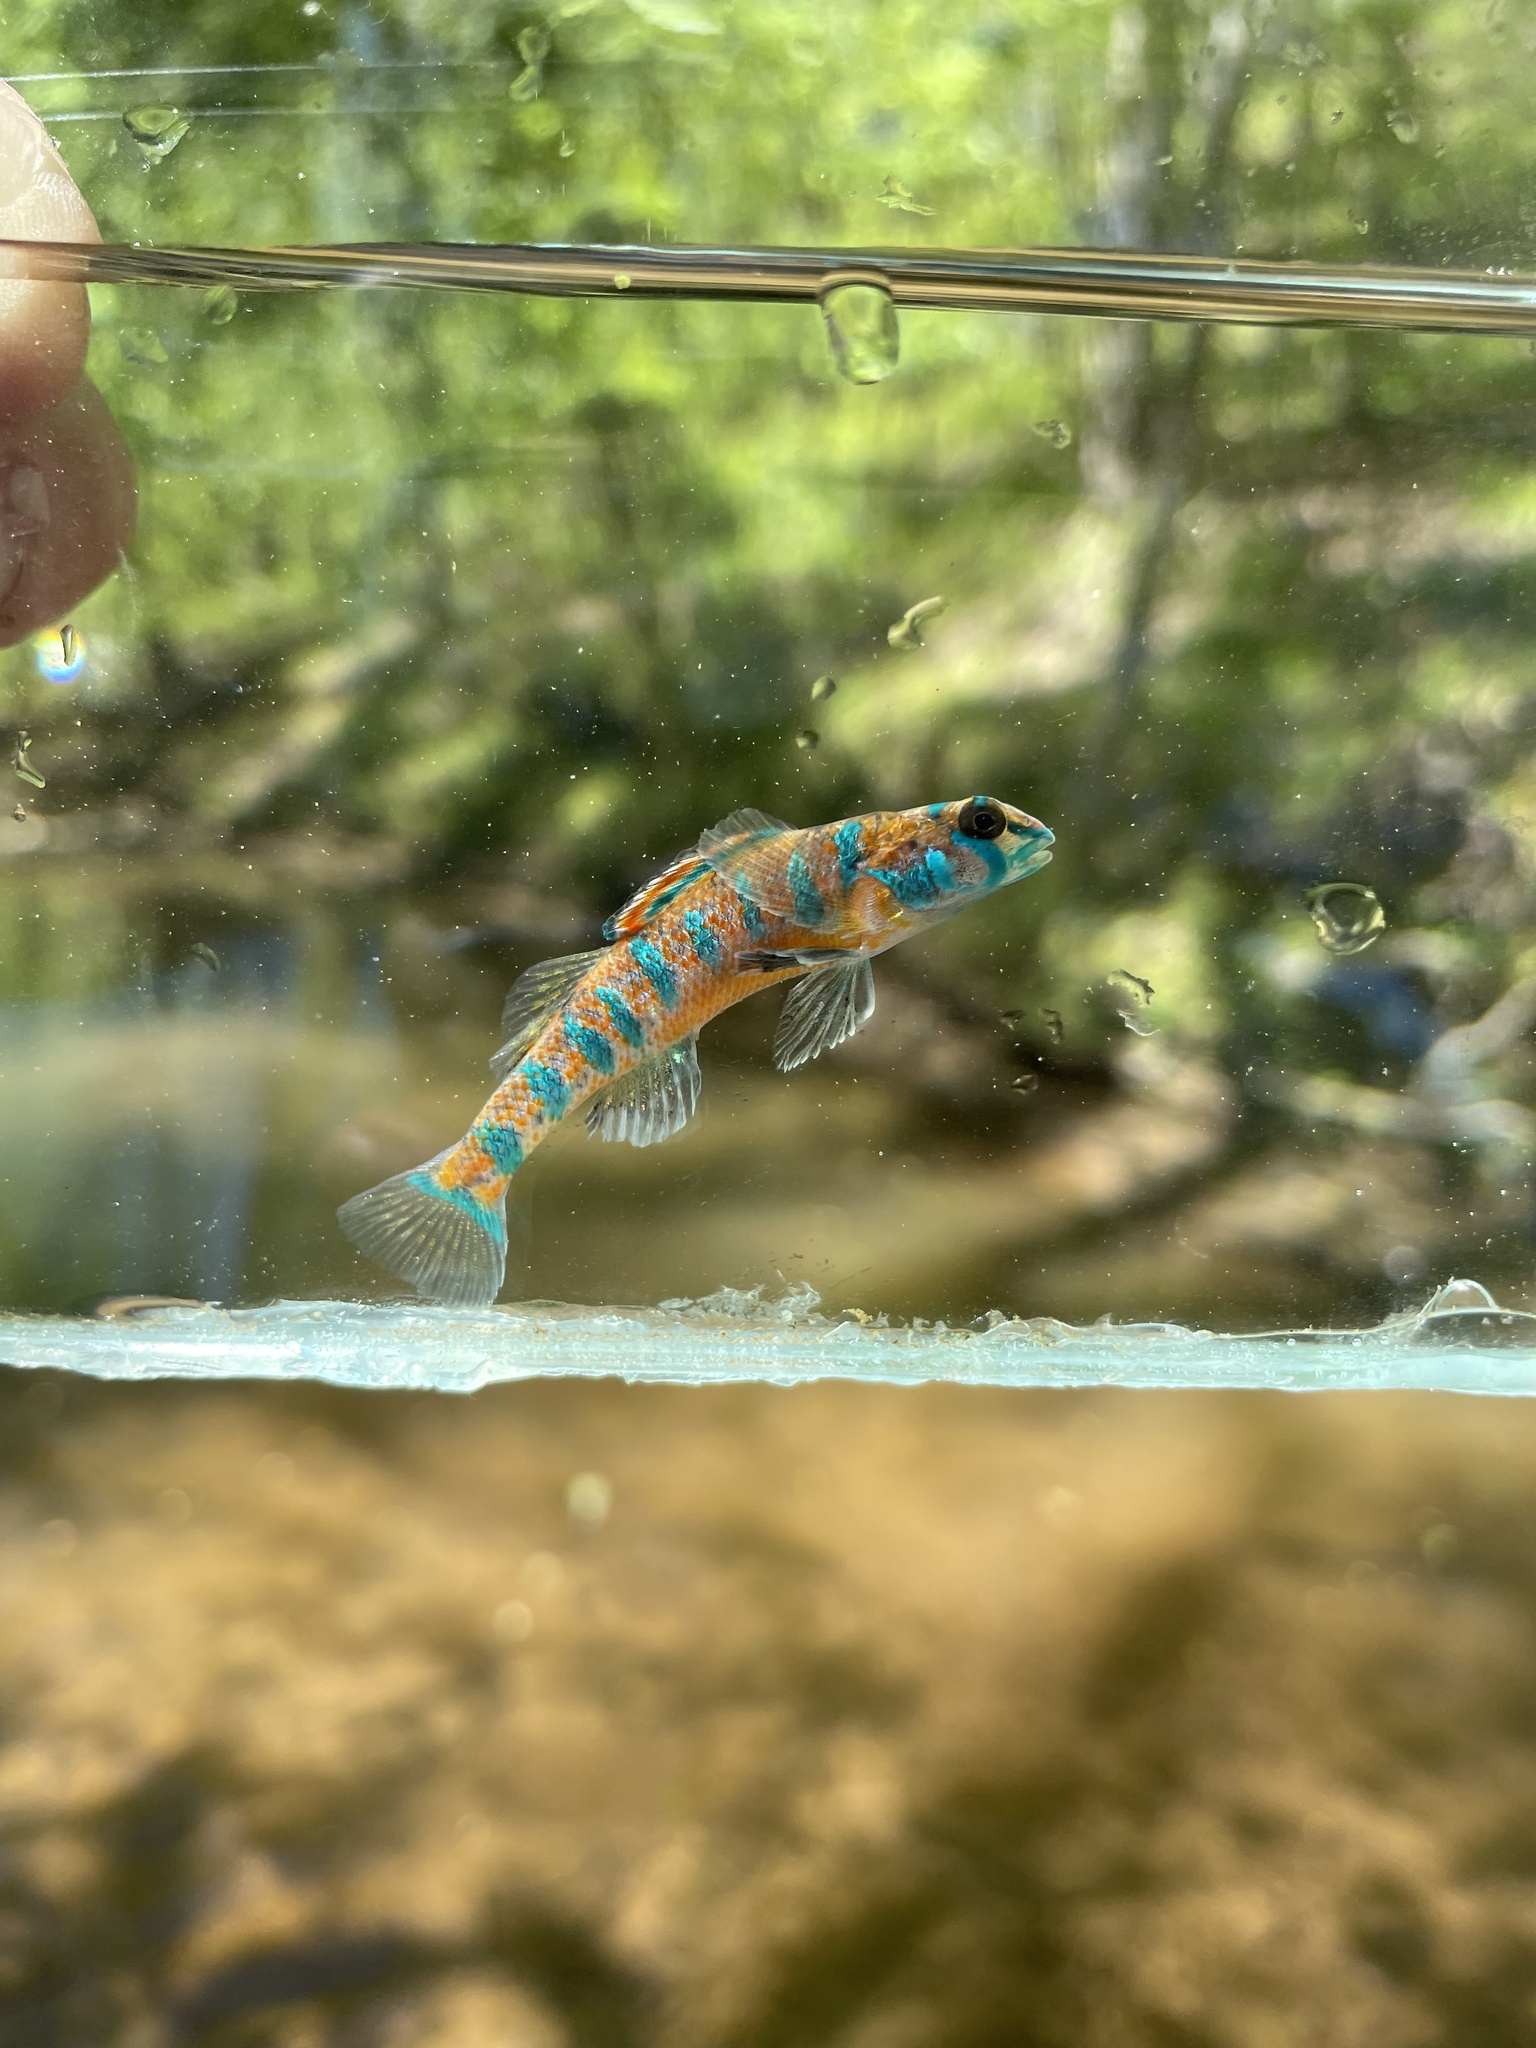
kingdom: Animalia
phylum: Chordata
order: Perciformes
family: Percidae
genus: Etheostoma
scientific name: Etheostoma stigmaeum
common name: Speckled darter
